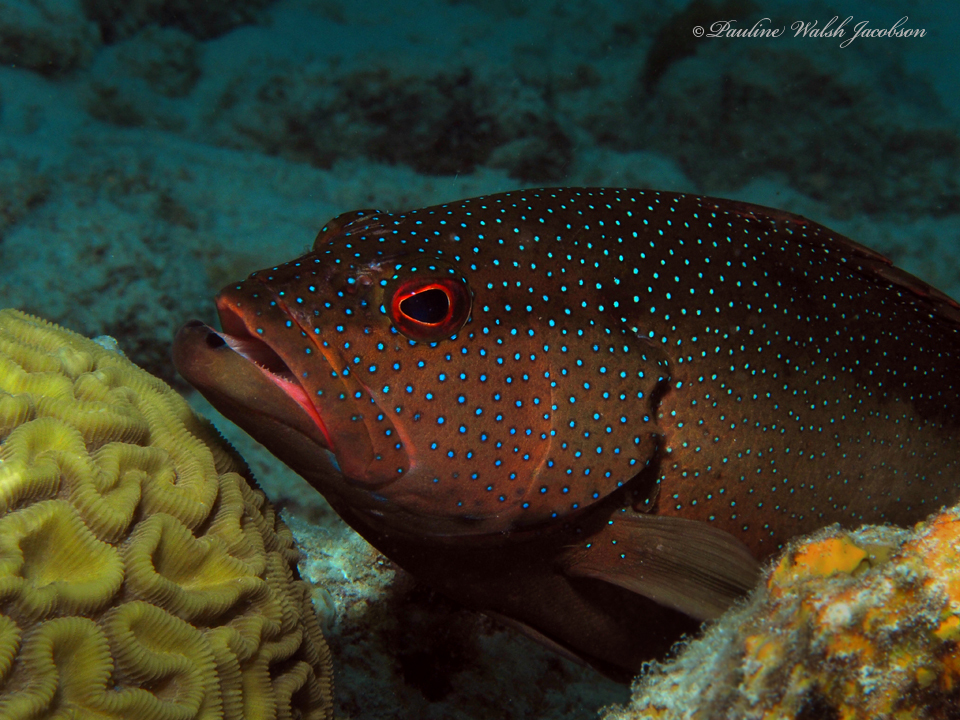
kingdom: Animalia
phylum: Chordata
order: Perciformes
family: Serranidae
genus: Cephalopholis
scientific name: Cephalopholis fulva
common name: Butterfish
